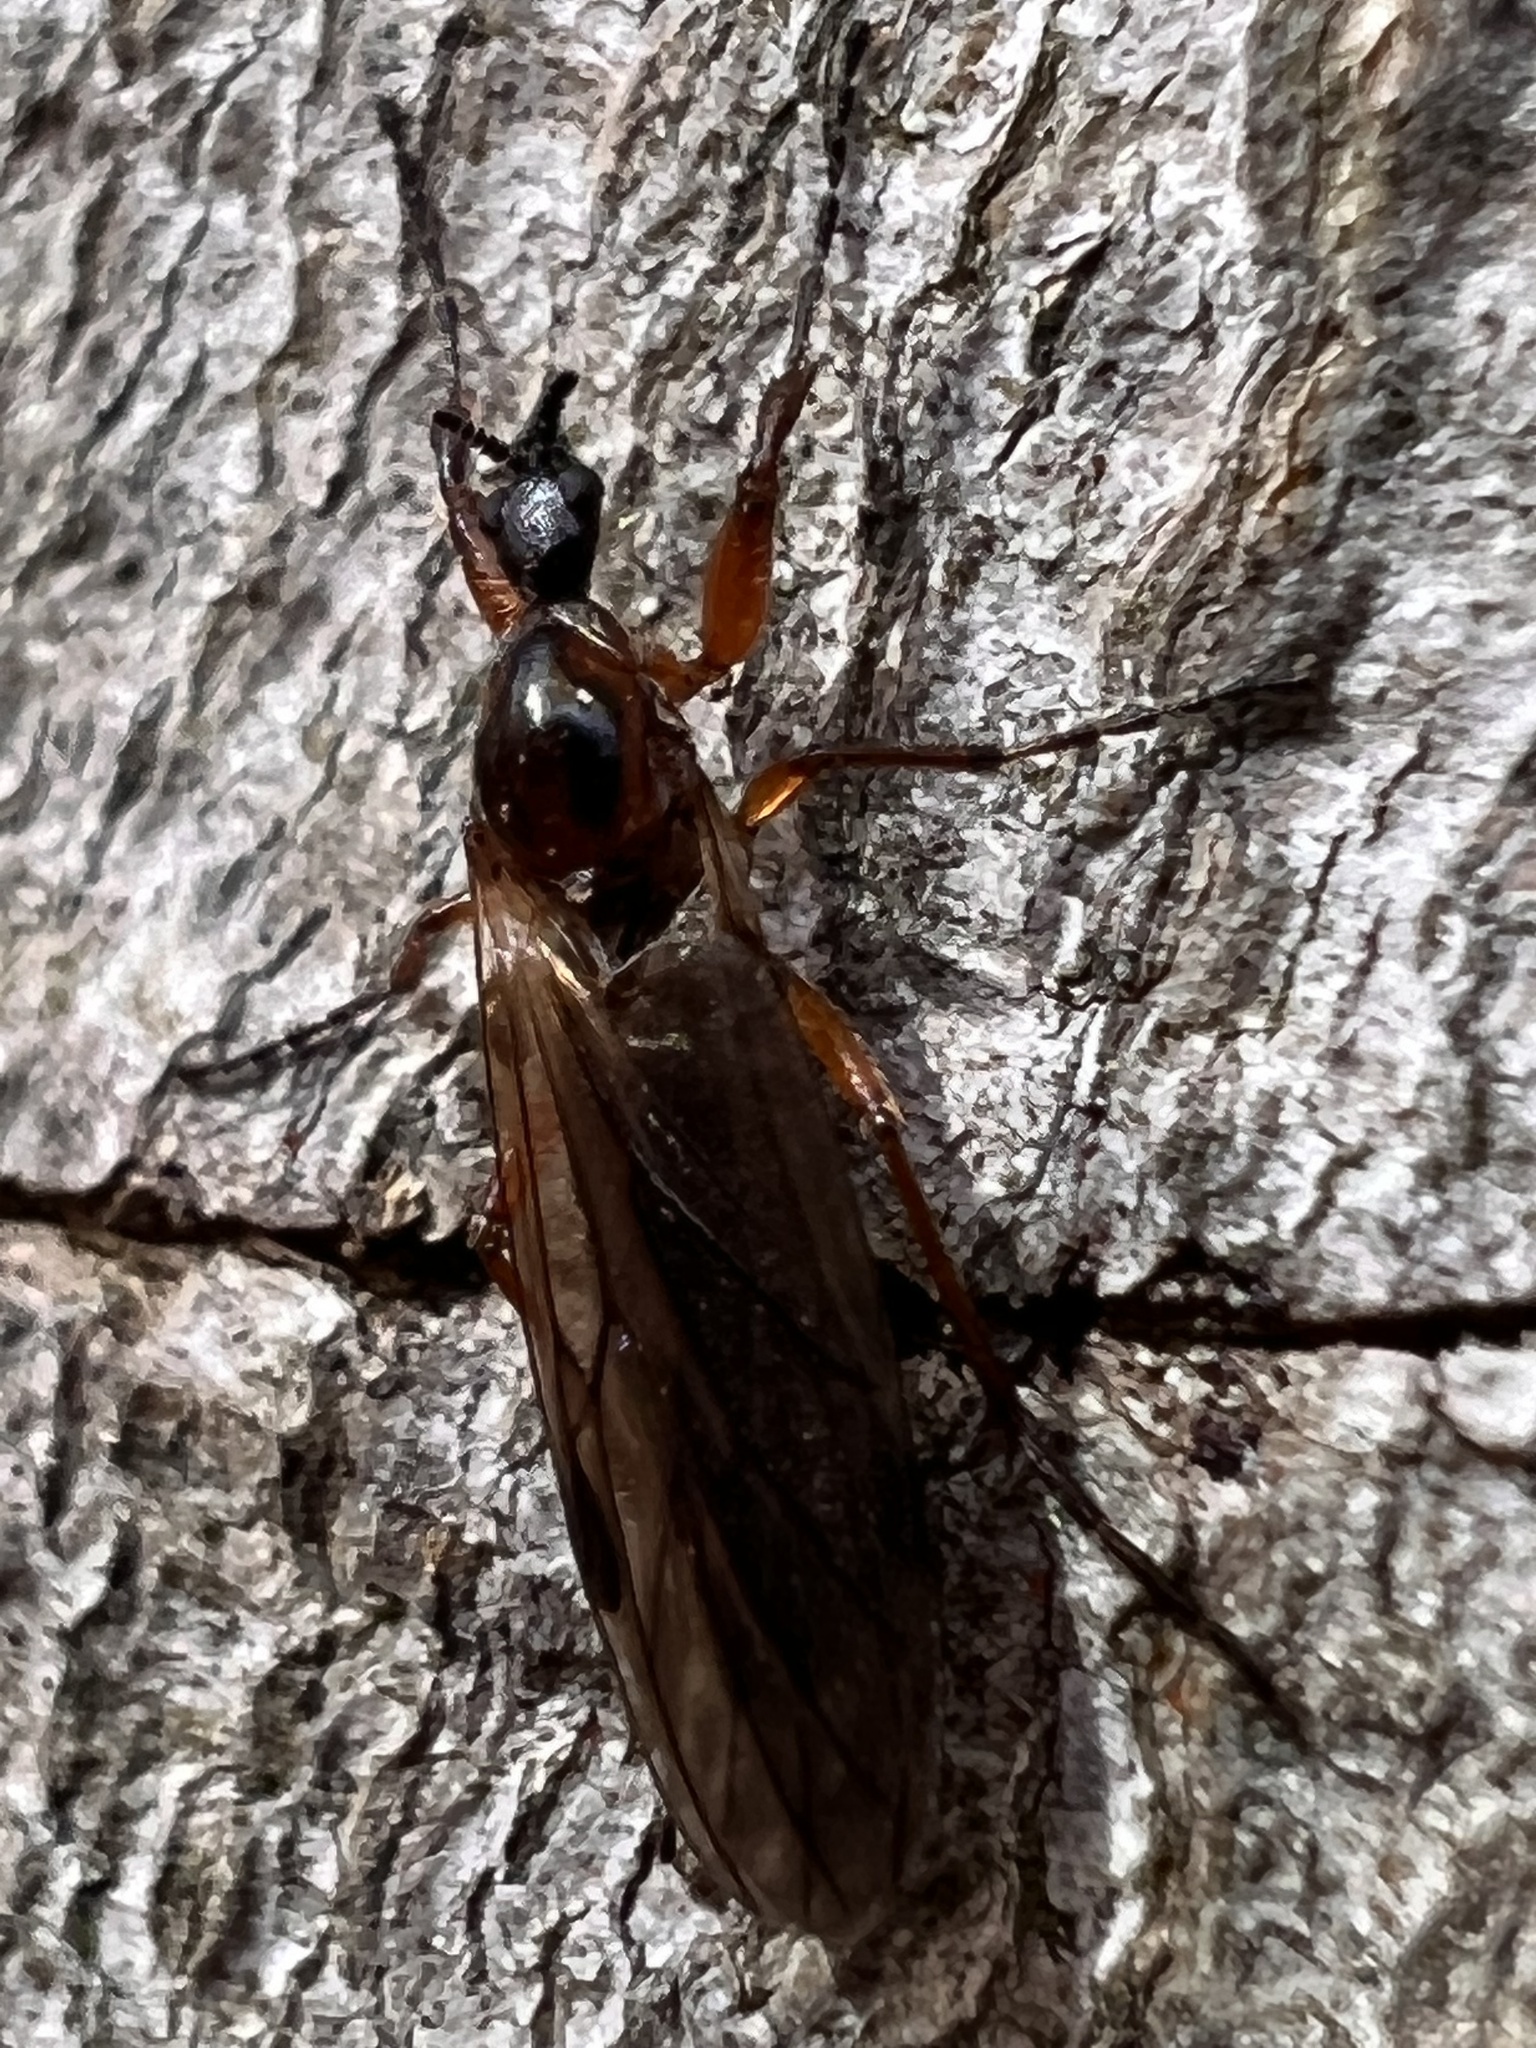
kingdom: Animalia
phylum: Arthropoda
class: Insecta
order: Diptera
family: Bibionidae
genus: Bibio
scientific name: Bibio longipes
